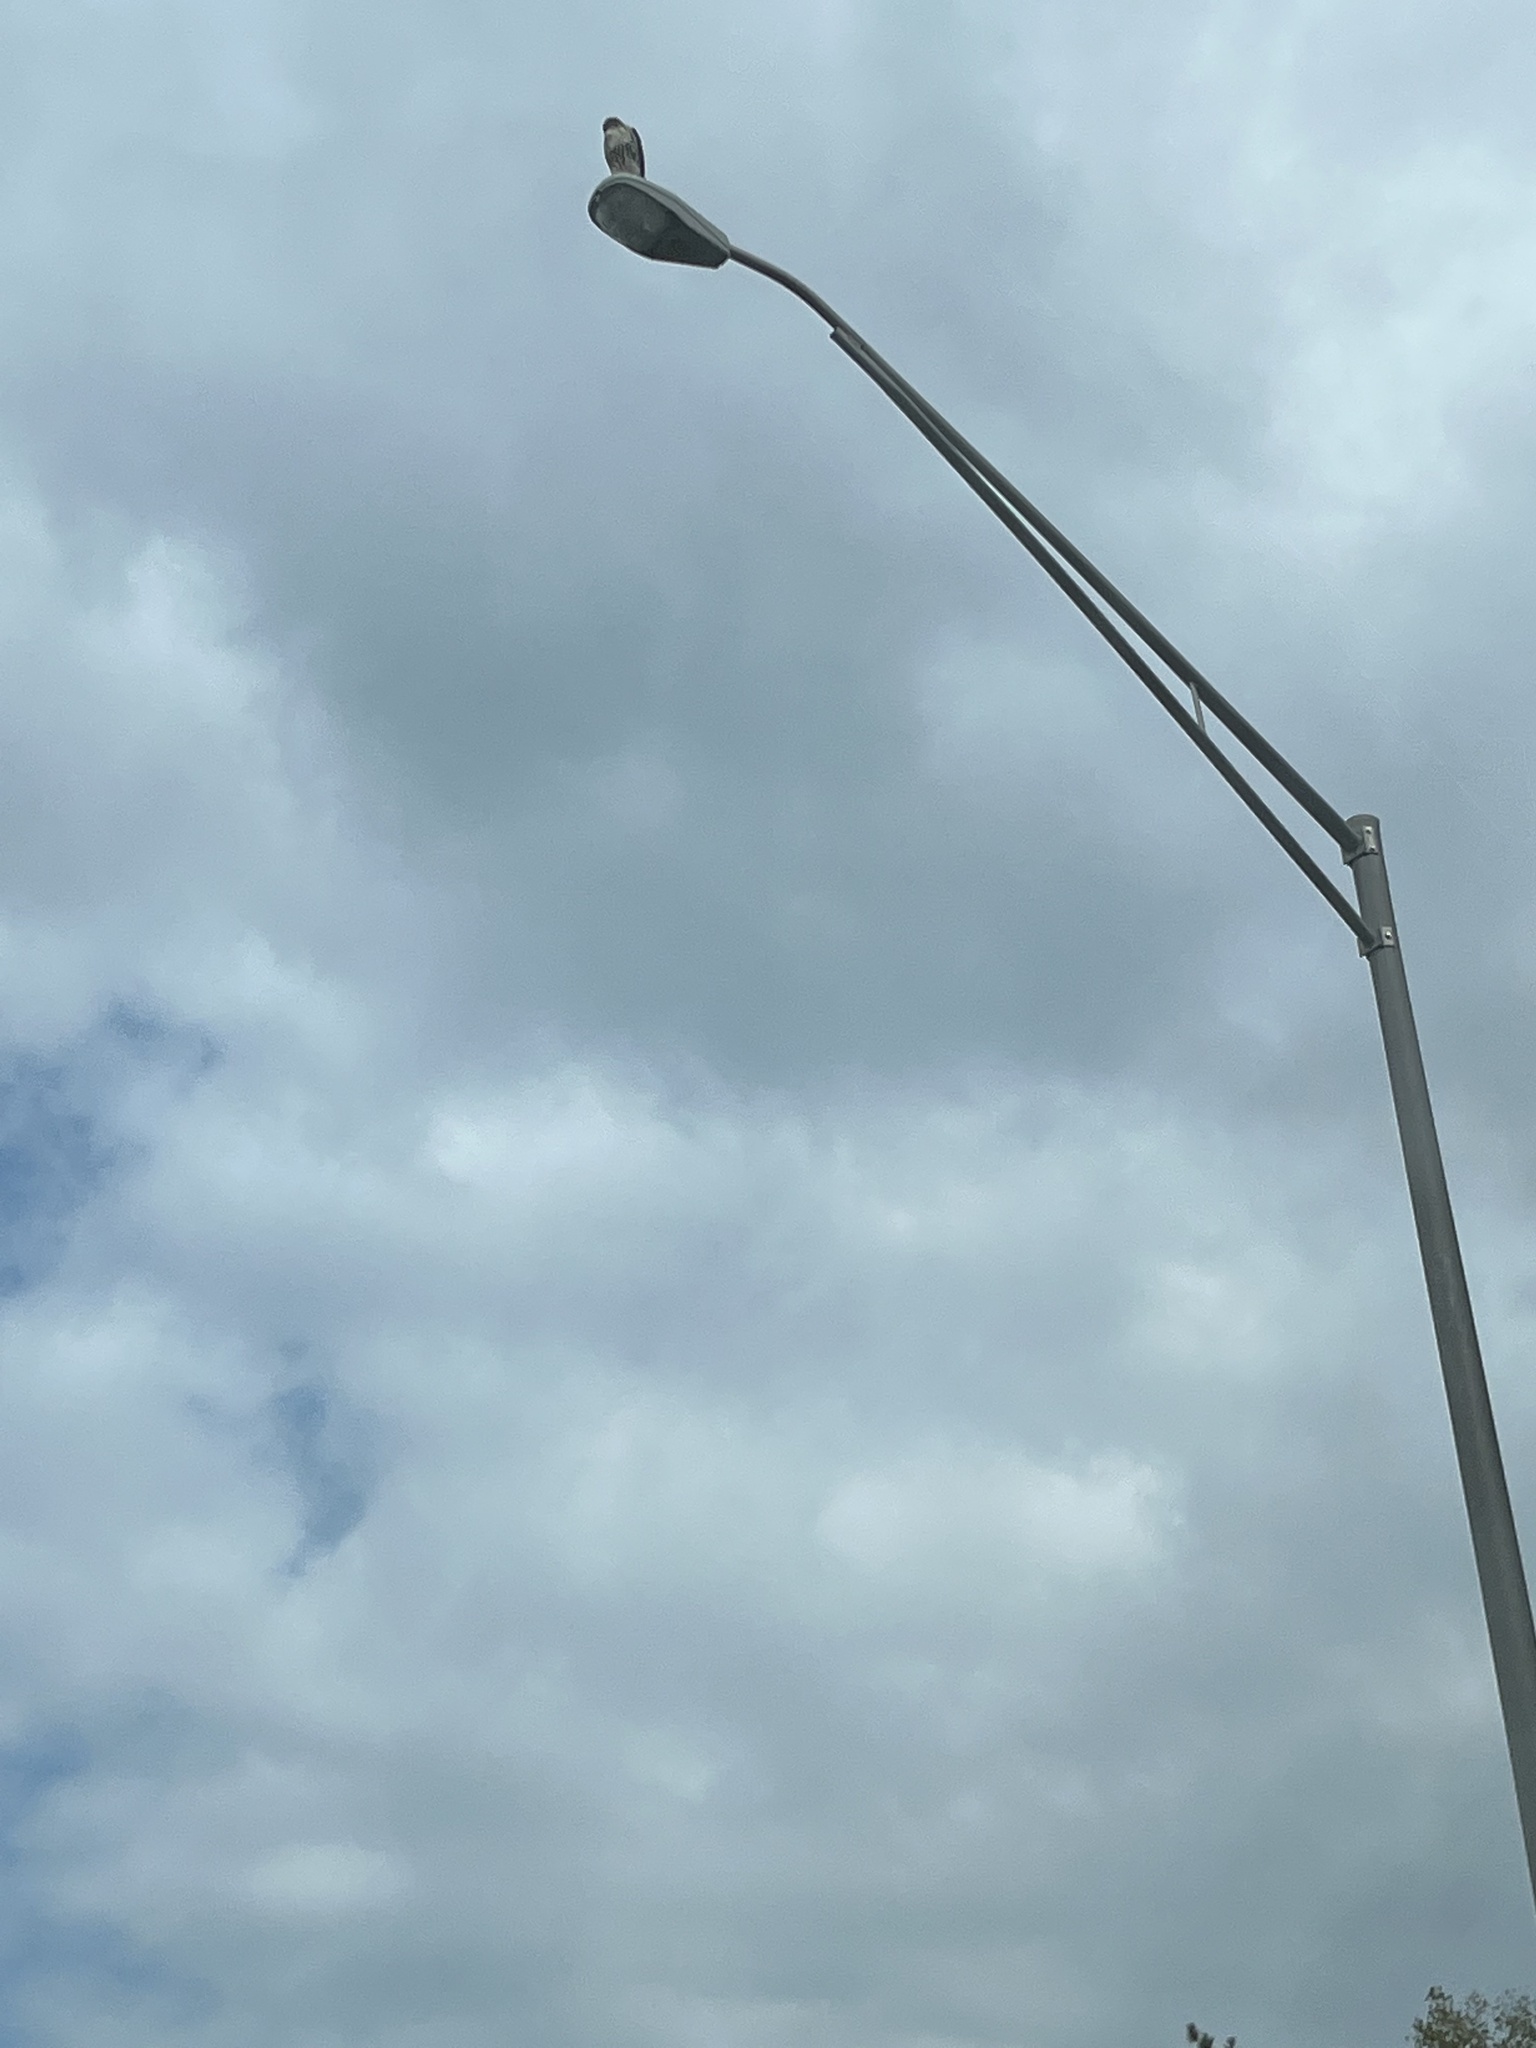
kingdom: Animalia
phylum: Chordata
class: Aves
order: Accipitriformes
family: Accipitridae
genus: Buteo
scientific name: Buteo jamaicensis
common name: Red-tailed hawk
